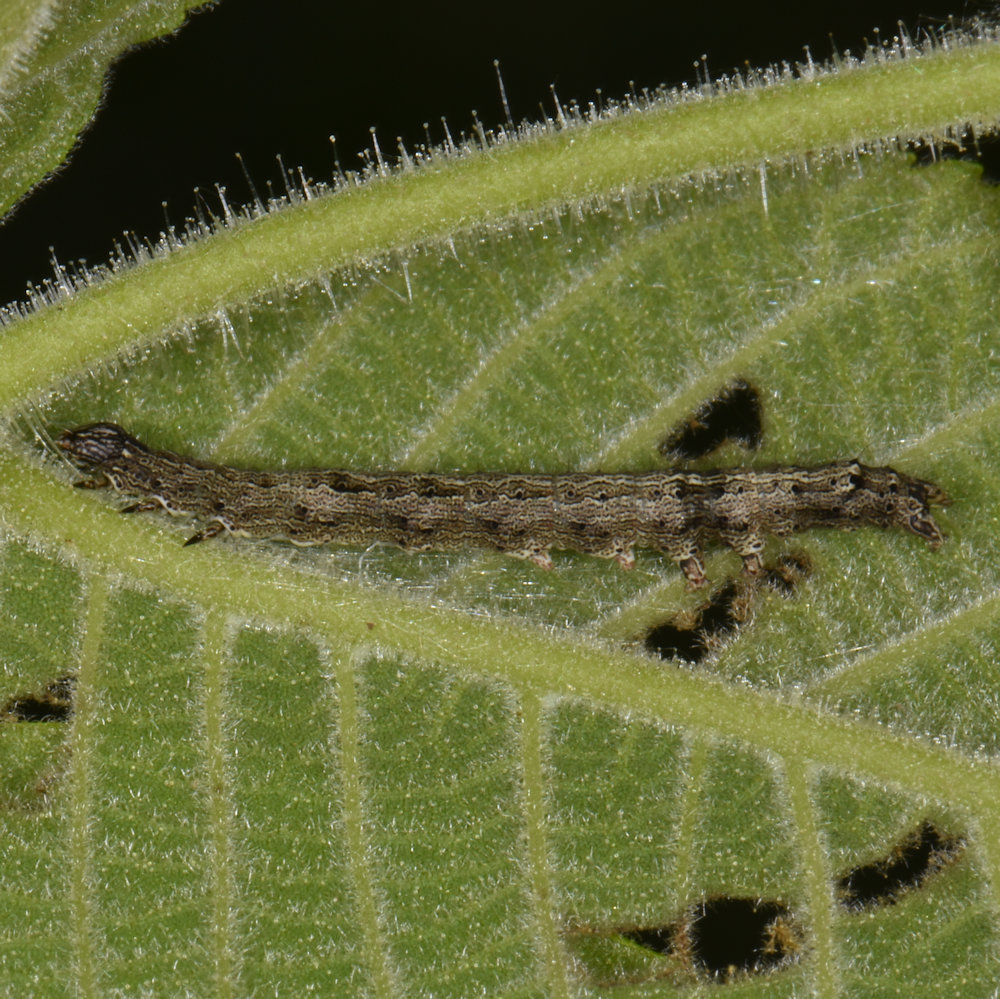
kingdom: Animalia
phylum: Arthropoda
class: Insecta
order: Lepidoptera
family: Erebidae
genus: Catocala
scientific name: Catocala neogama
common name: Bride underwing
